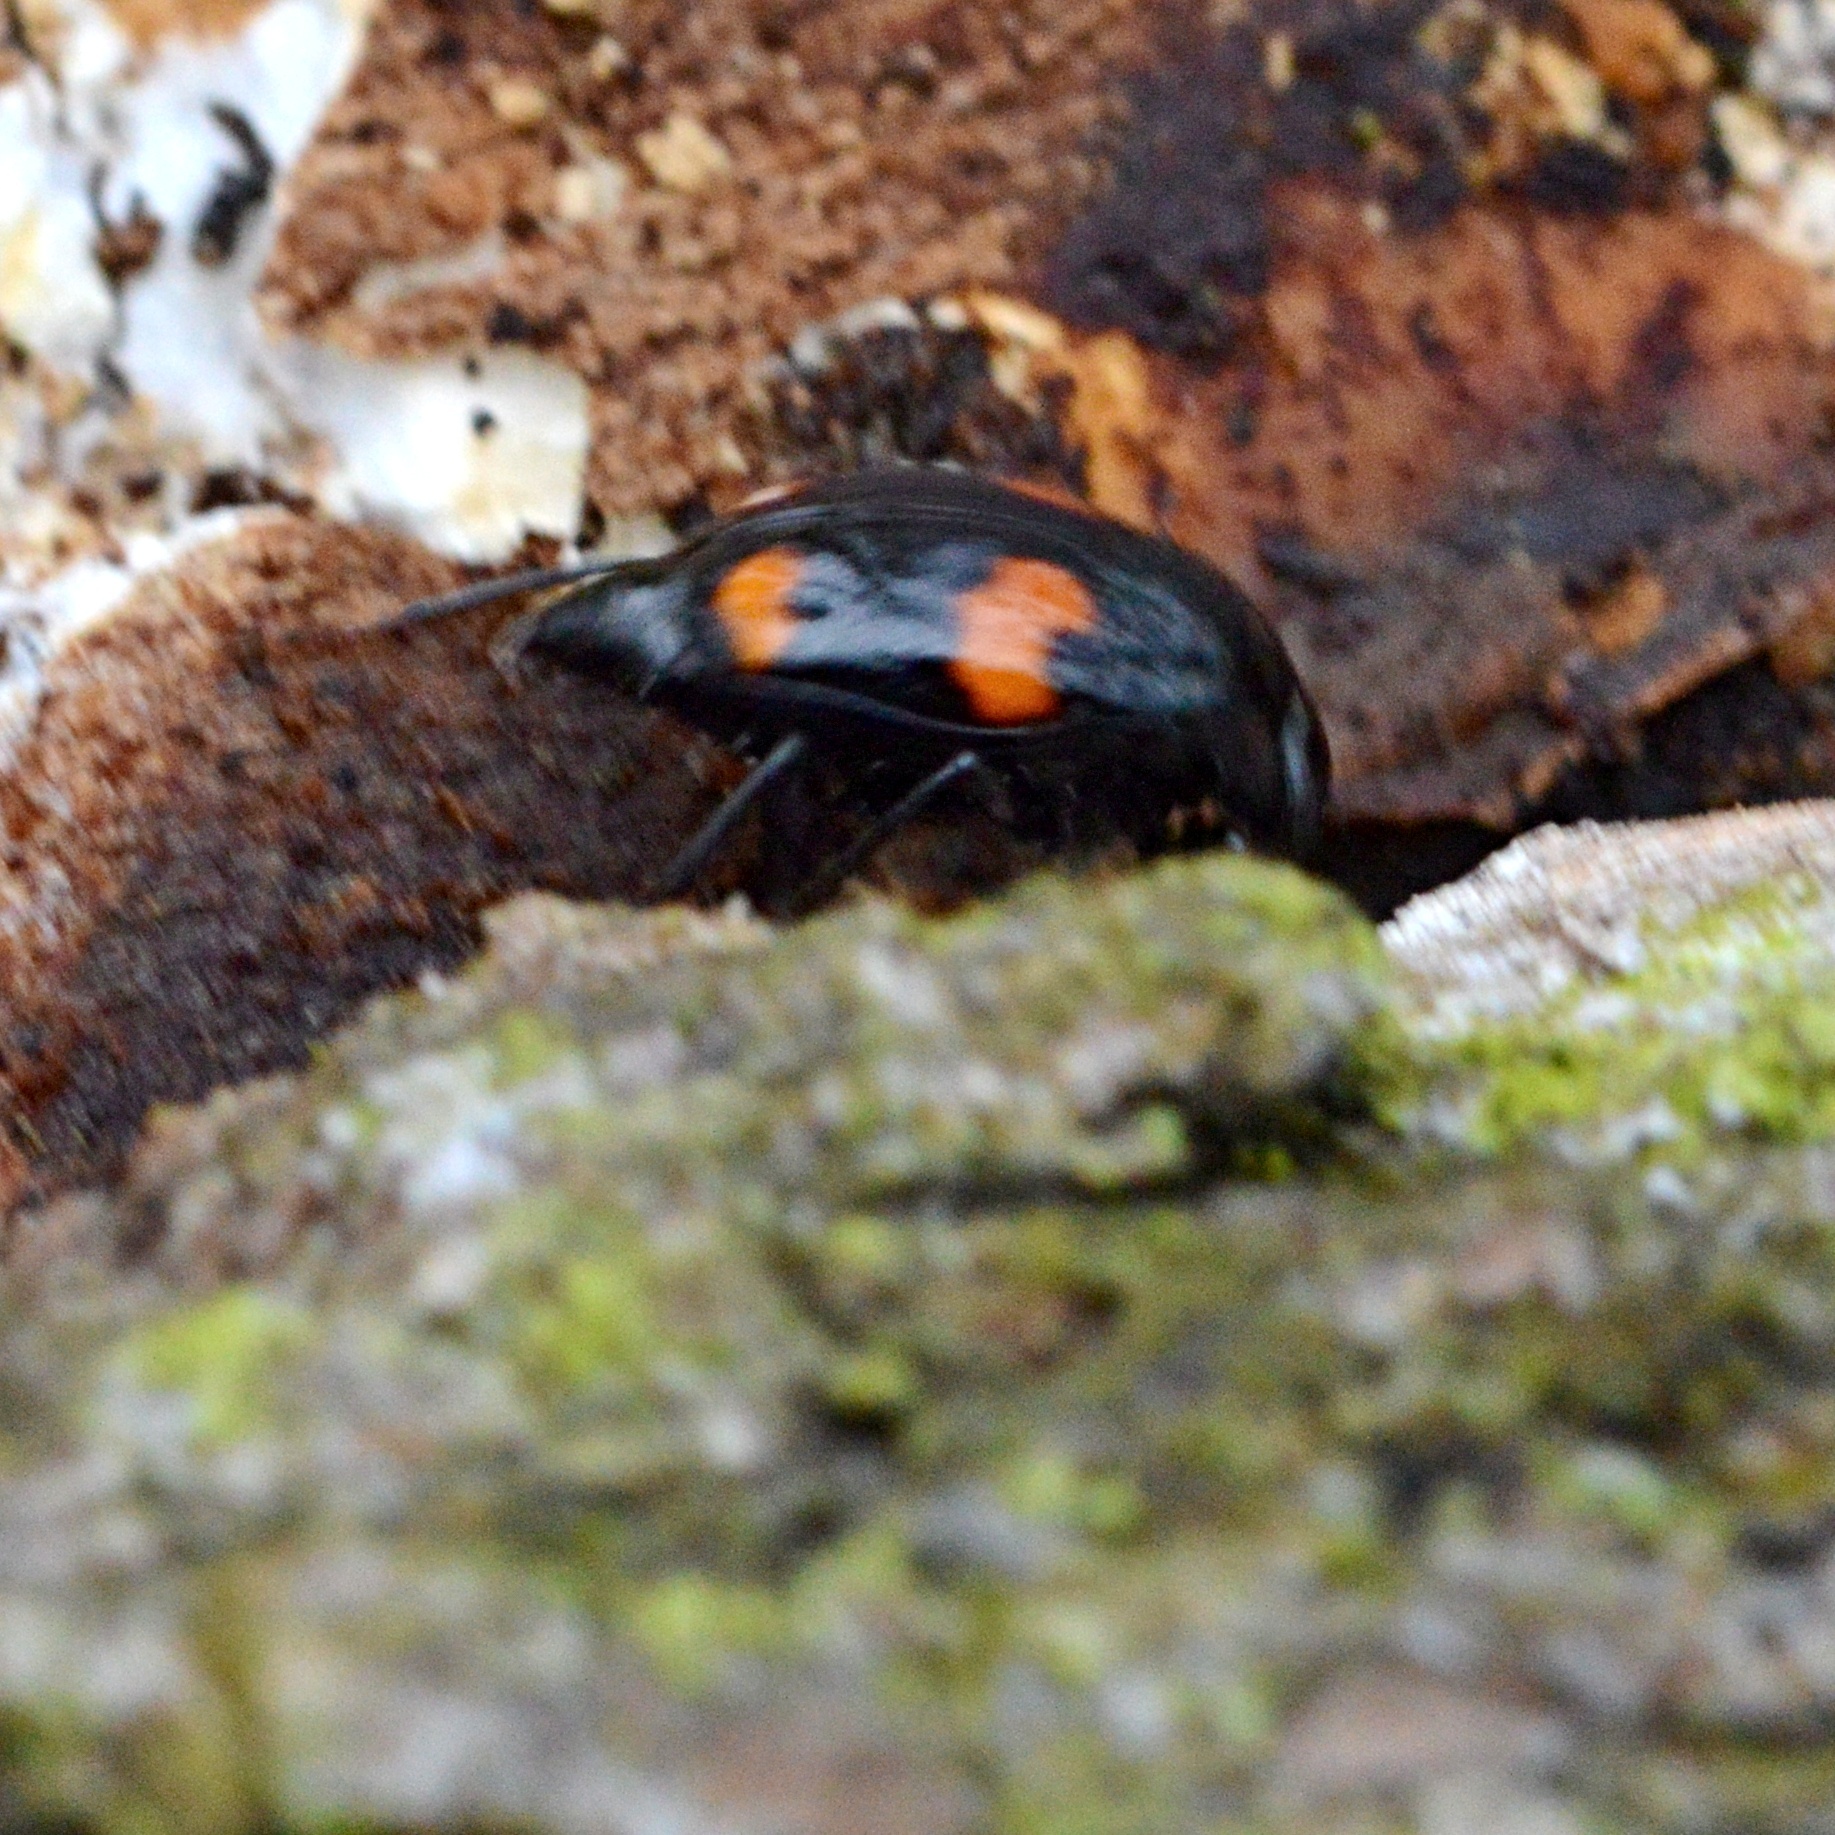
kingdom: Animalia
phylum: Arthropoda
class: Insecta
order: Coleoptera
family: Staphylinidae
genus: Scaphidium
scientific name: Scaphidium quadrimaculatum
